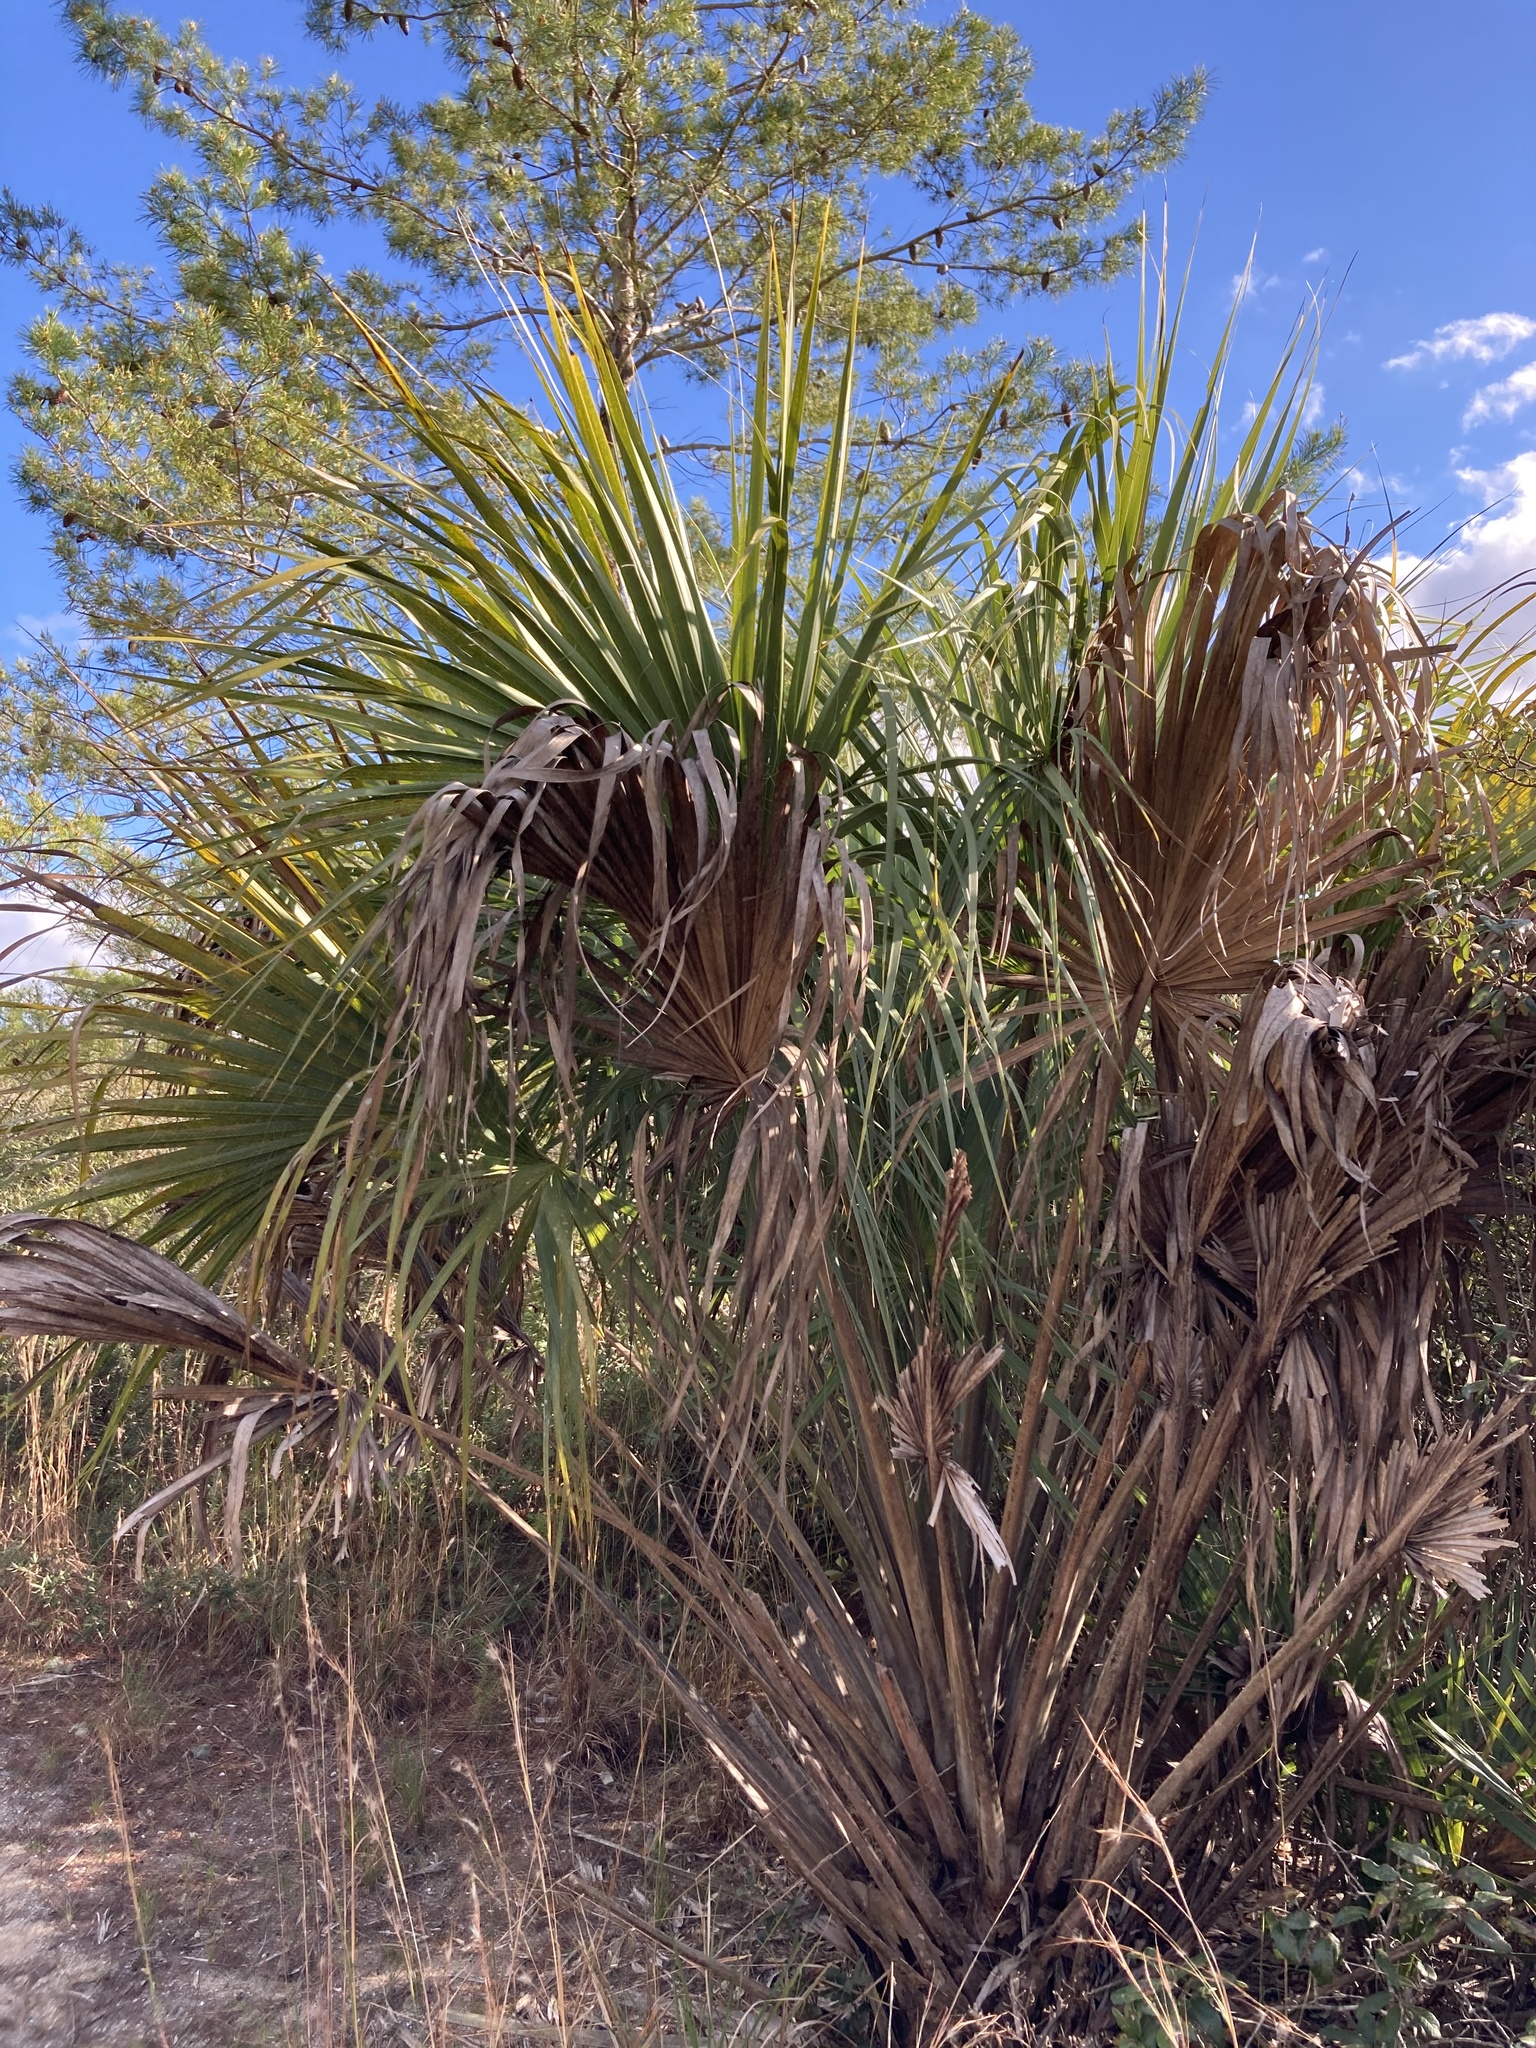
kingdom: Plantae
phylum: Tracheophyta
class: Liliopsida
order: Arecales
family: Arecaceae
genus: Sabal
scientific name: Sabal palmetto
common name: Blue palmetto
